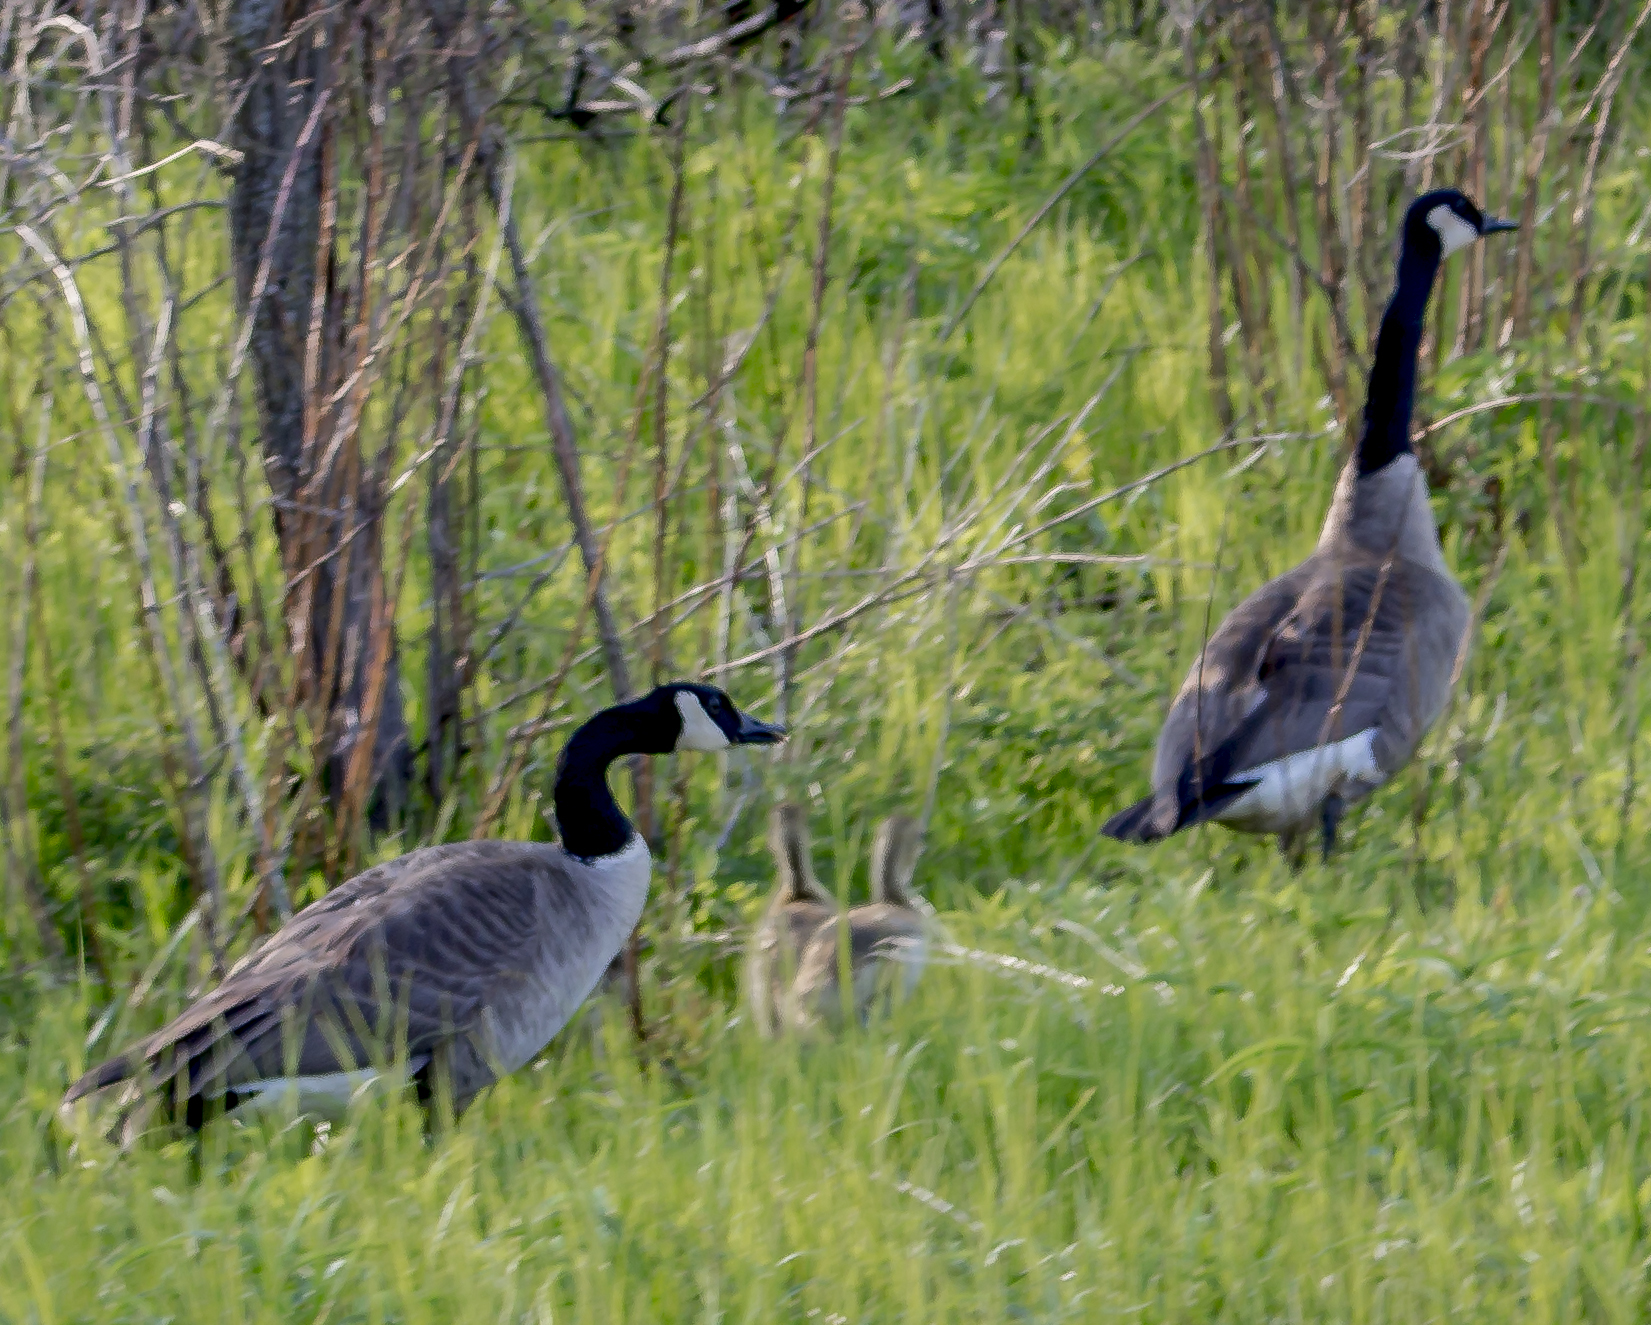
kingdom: Animalia
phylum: Chordata
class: Aves
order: Anseriformes
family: Anatidae
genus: Branta
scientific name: Branta canadensis
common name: Canada goose
